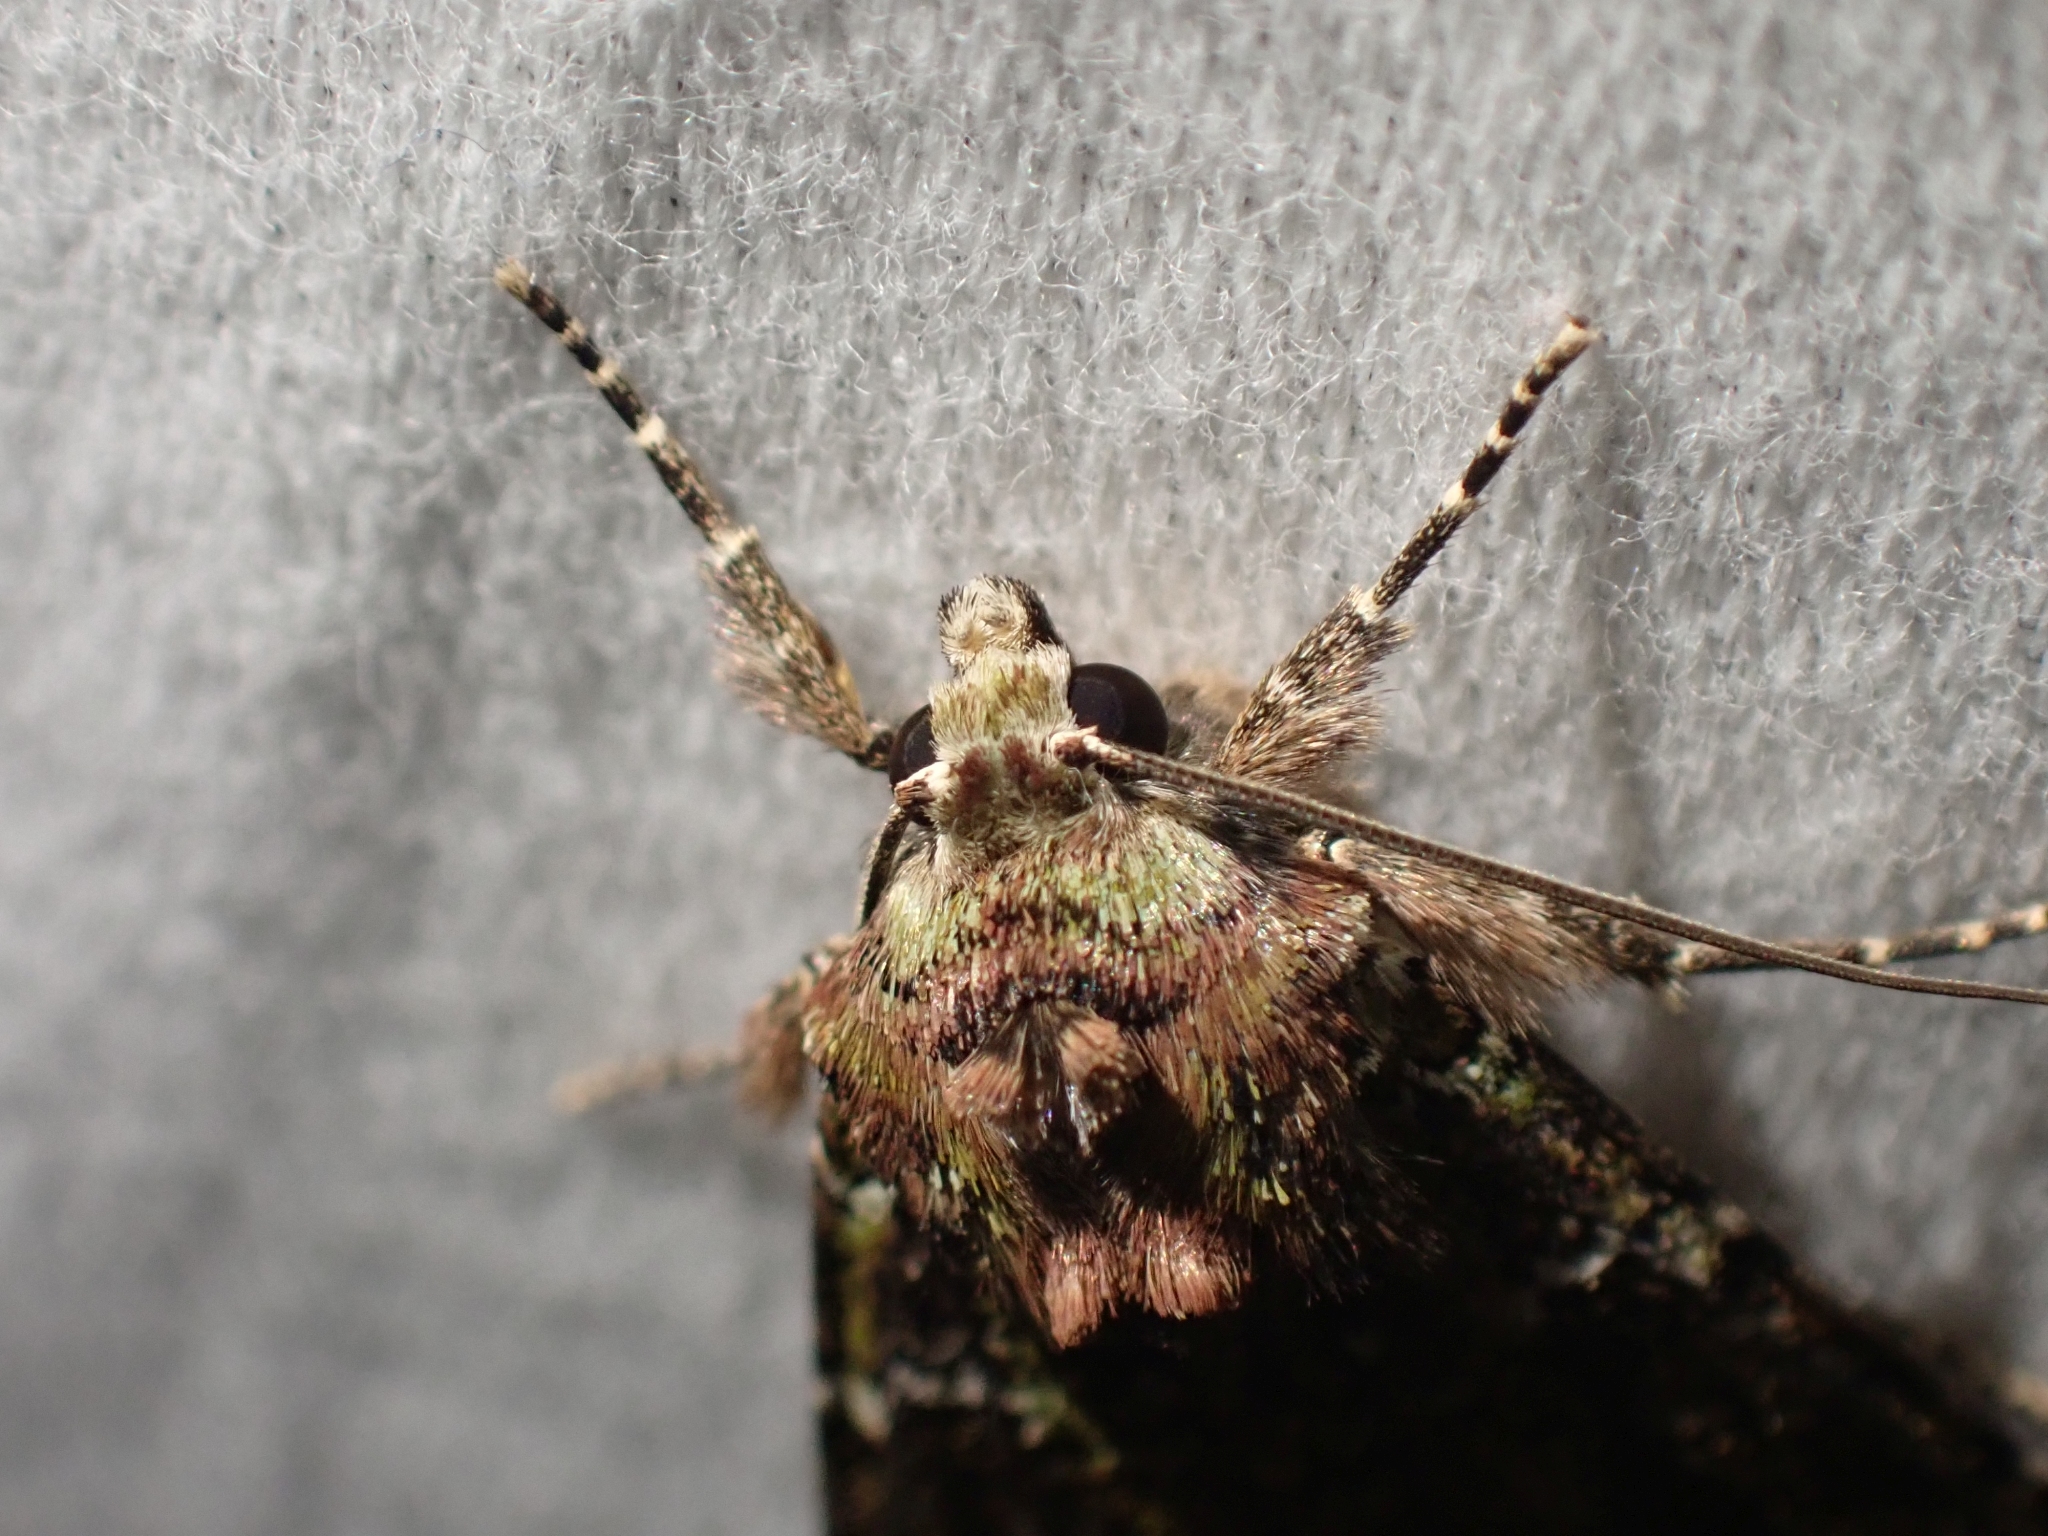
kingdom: Animalia
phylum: Arthropoda
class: Insecta
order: Lepidoptera
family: Noctuidae
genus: Anaplectoides
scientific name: Anaplectoides prasina
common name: Green arches
